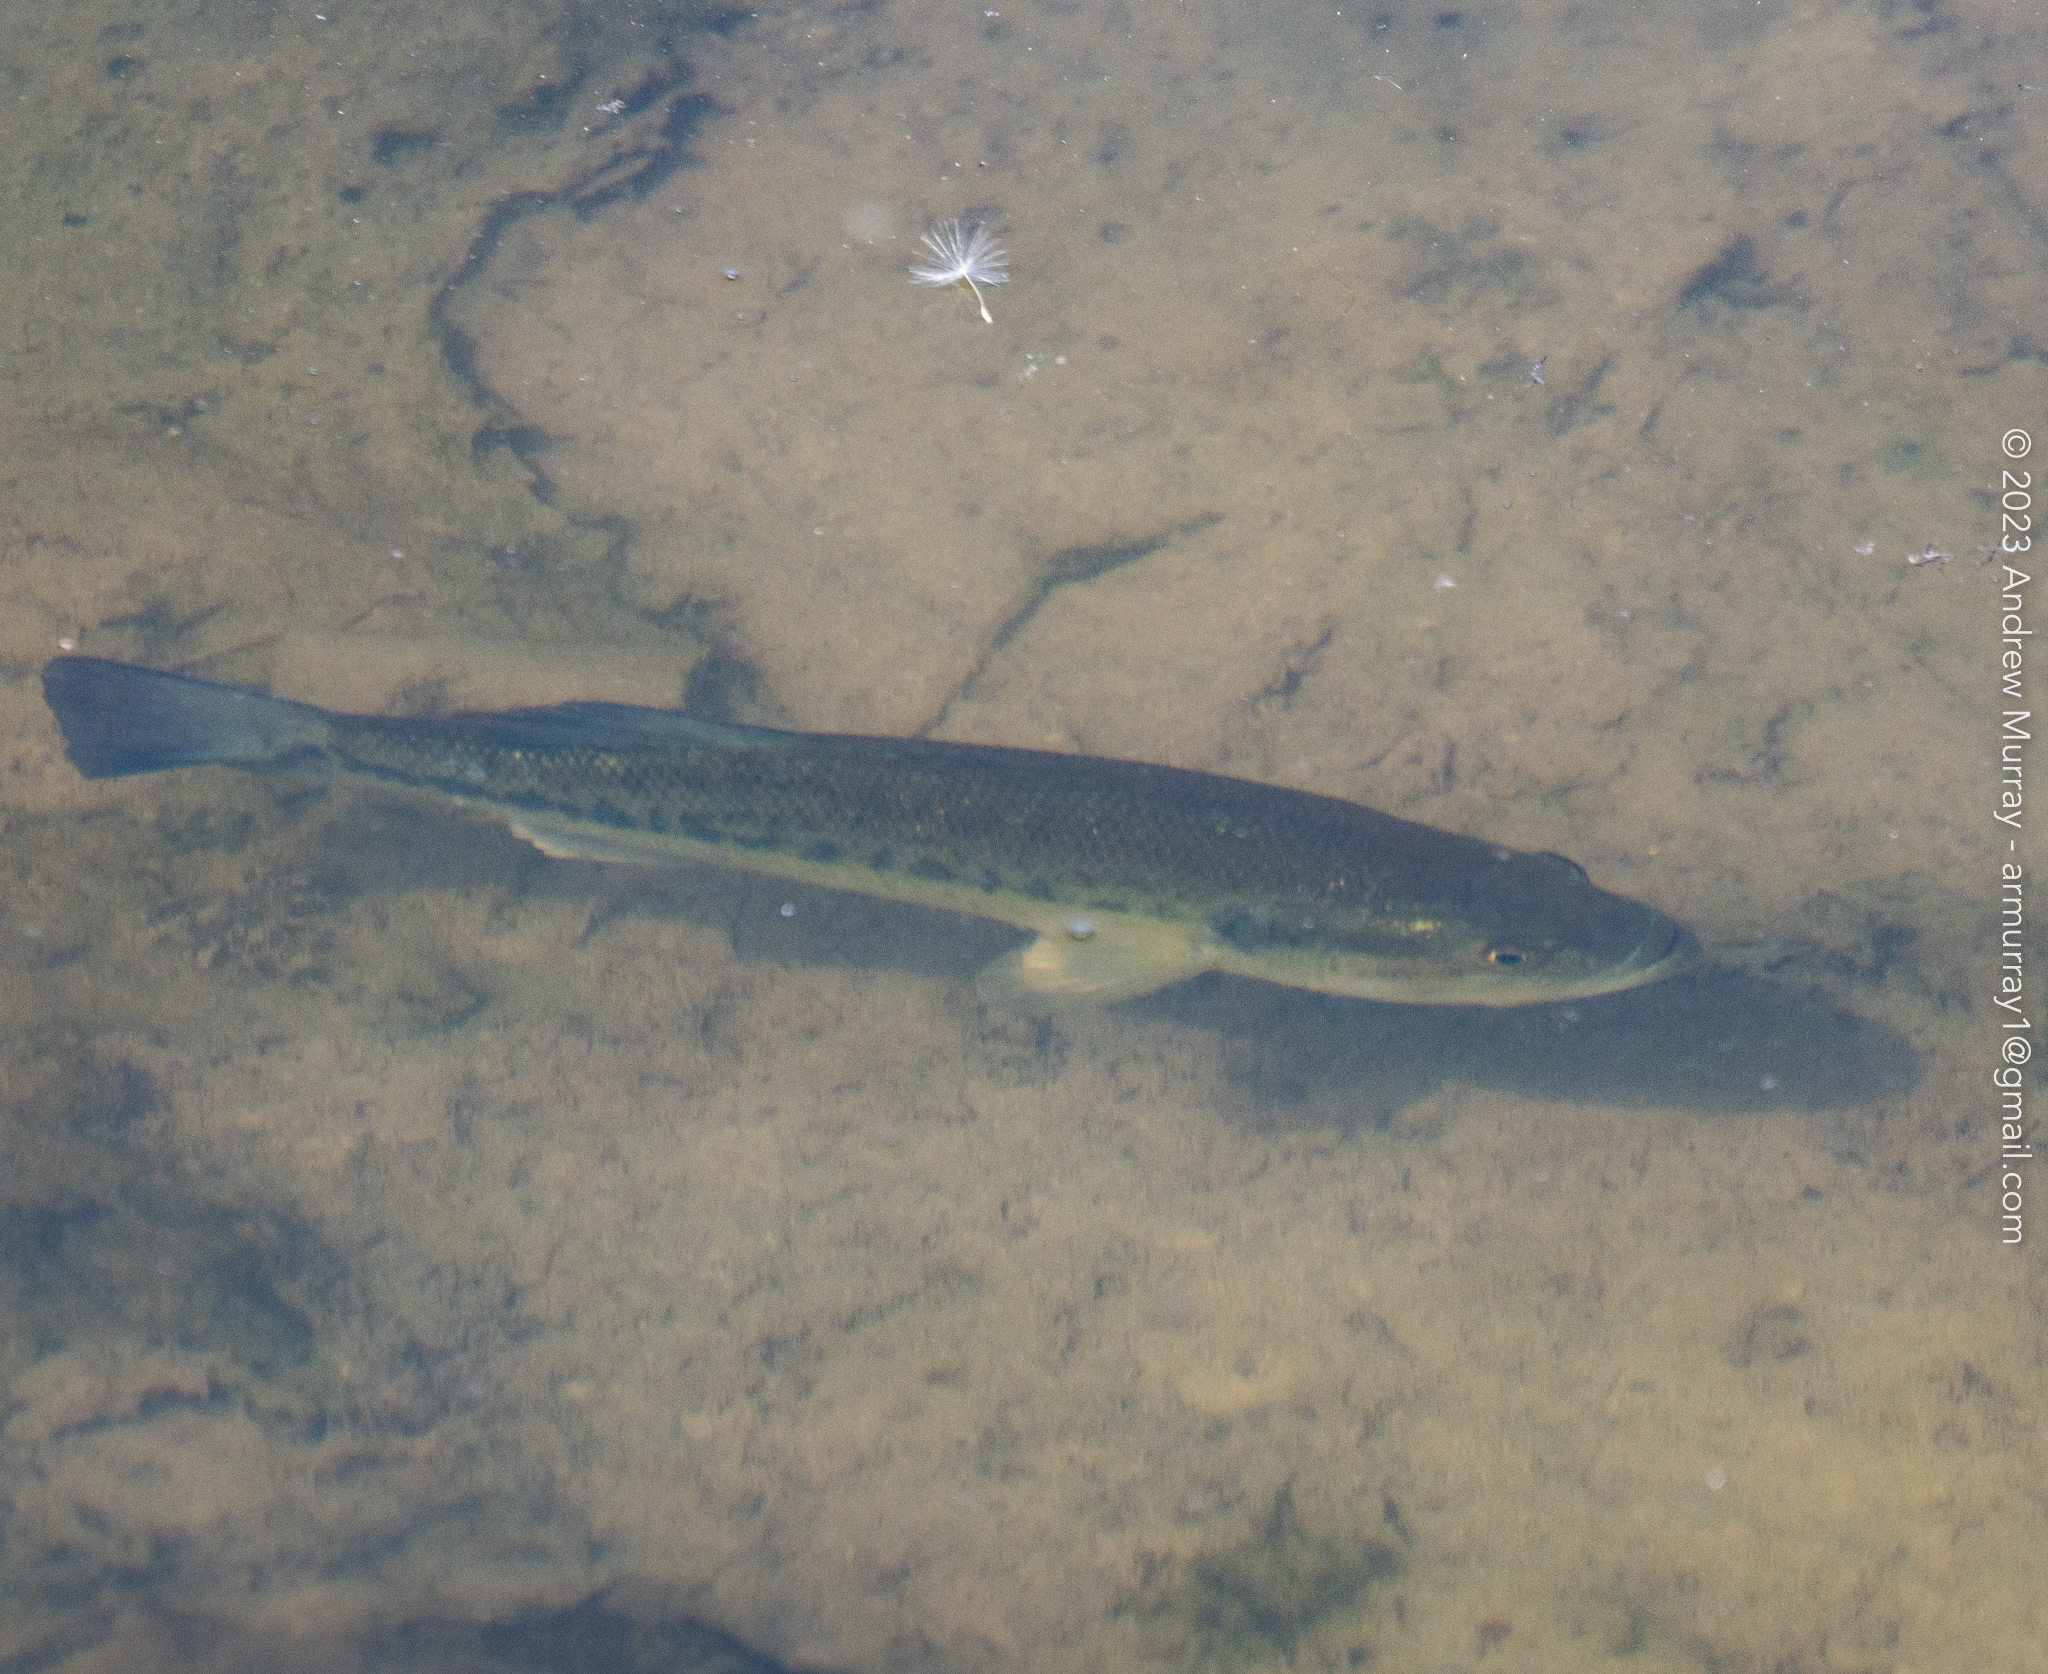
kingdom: Animalia
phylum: Chordata
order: Perciformes
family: Centrarchidae
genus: Micropterus
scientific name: Micropterus
